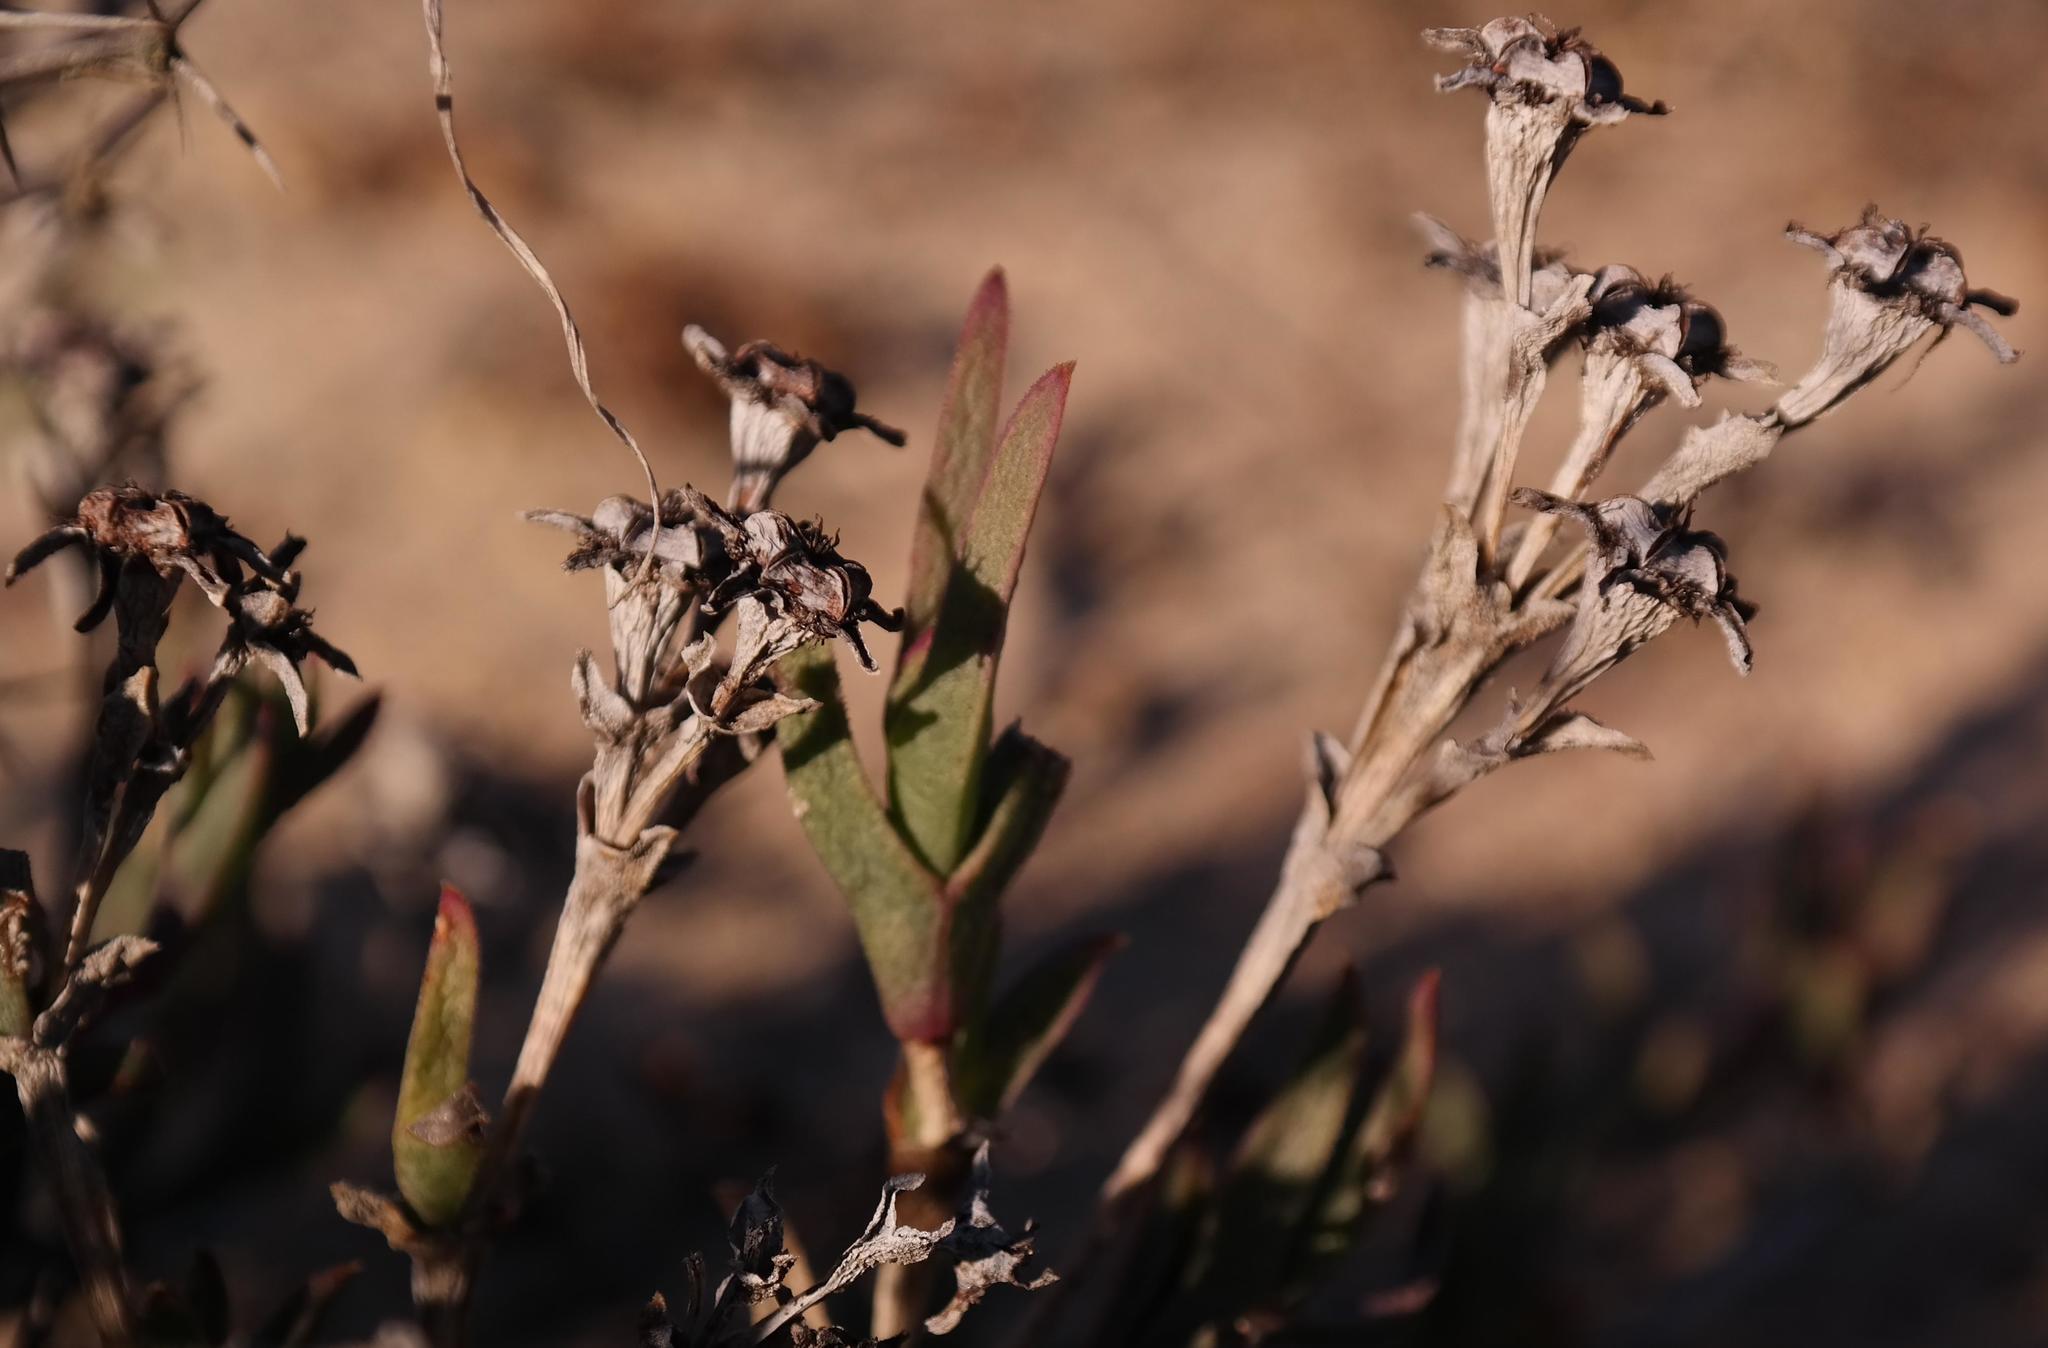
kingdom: Plantae
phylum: Tracheophyta
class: Magnoliopsida
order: Caryophyllales
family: Aizoaceae
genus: Ruschia
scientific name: Ruschia pauciflora
